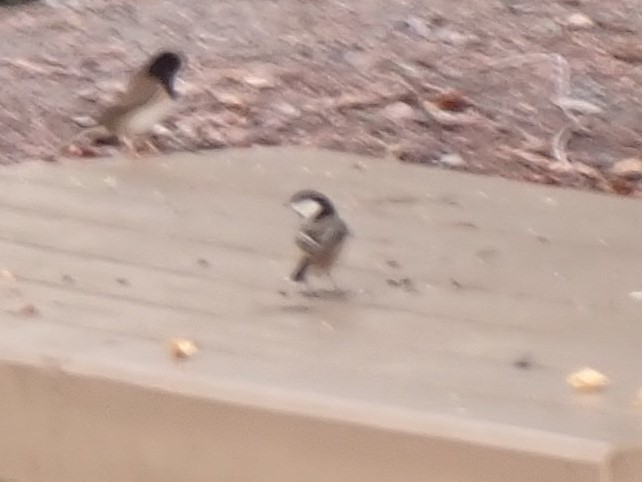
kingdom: Animalia
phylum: Chordata
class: Aves
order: Passeriformes
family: Paridae
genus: Poecile
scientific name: Poecile atricapillus
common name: Black-capped chickadee
